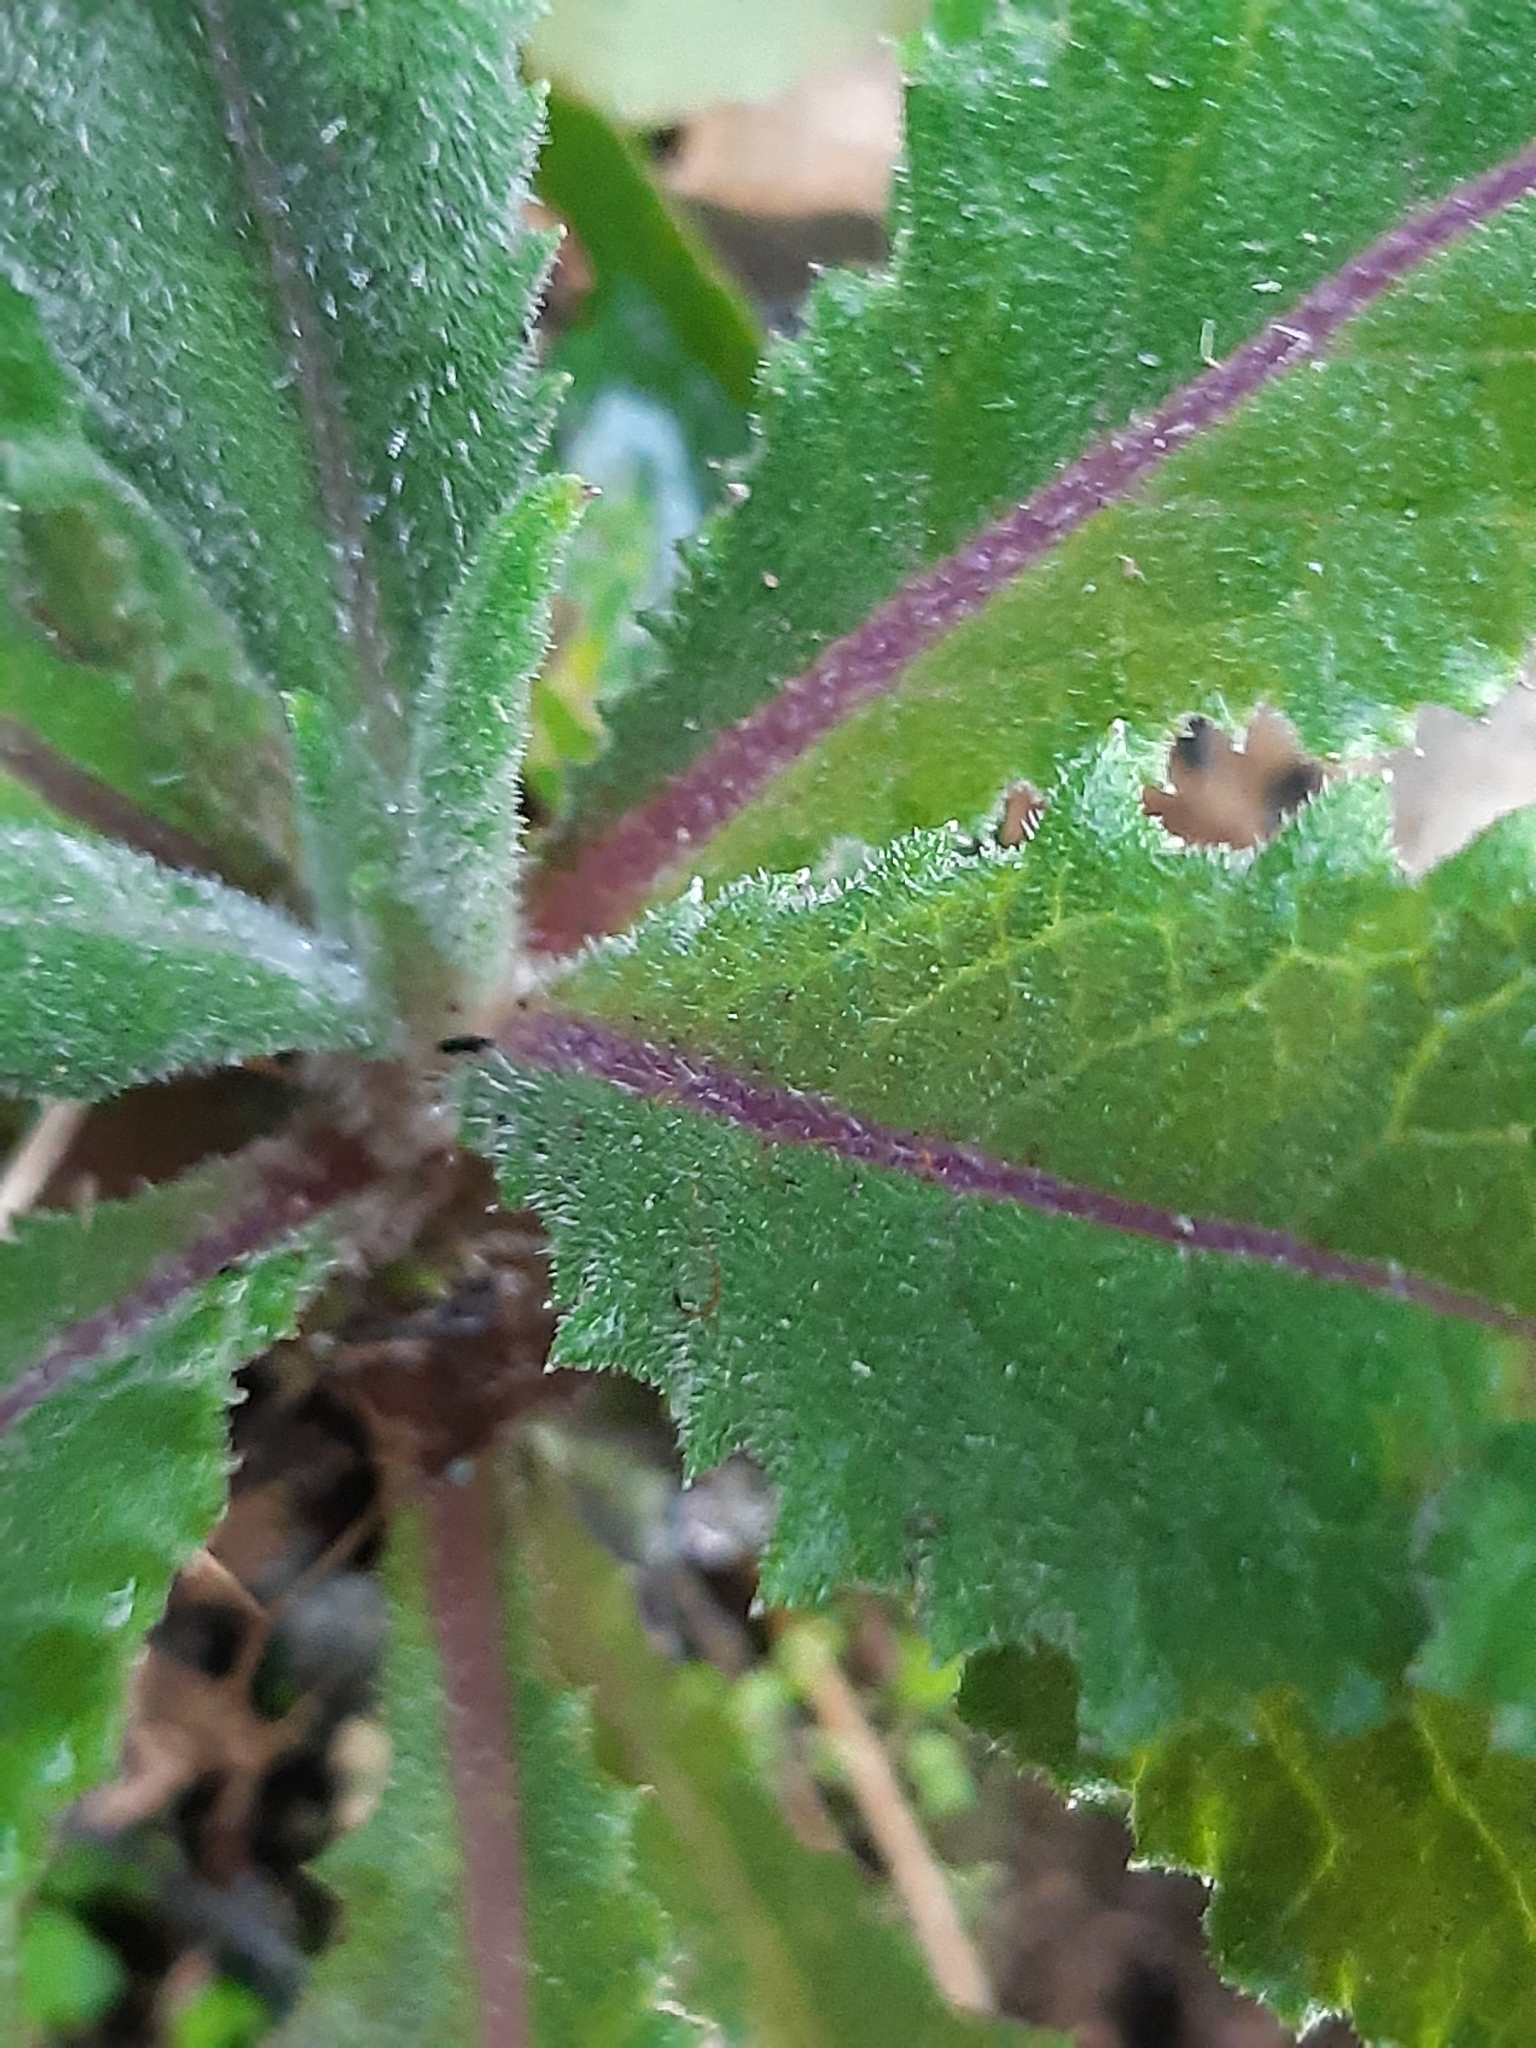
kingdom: Plantae
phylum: Tracheophyta
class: Magnoliopsida
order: Asterales
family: Asteraceae
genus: Senecio
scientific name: Senecio minimus
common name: Toothed fireweed
